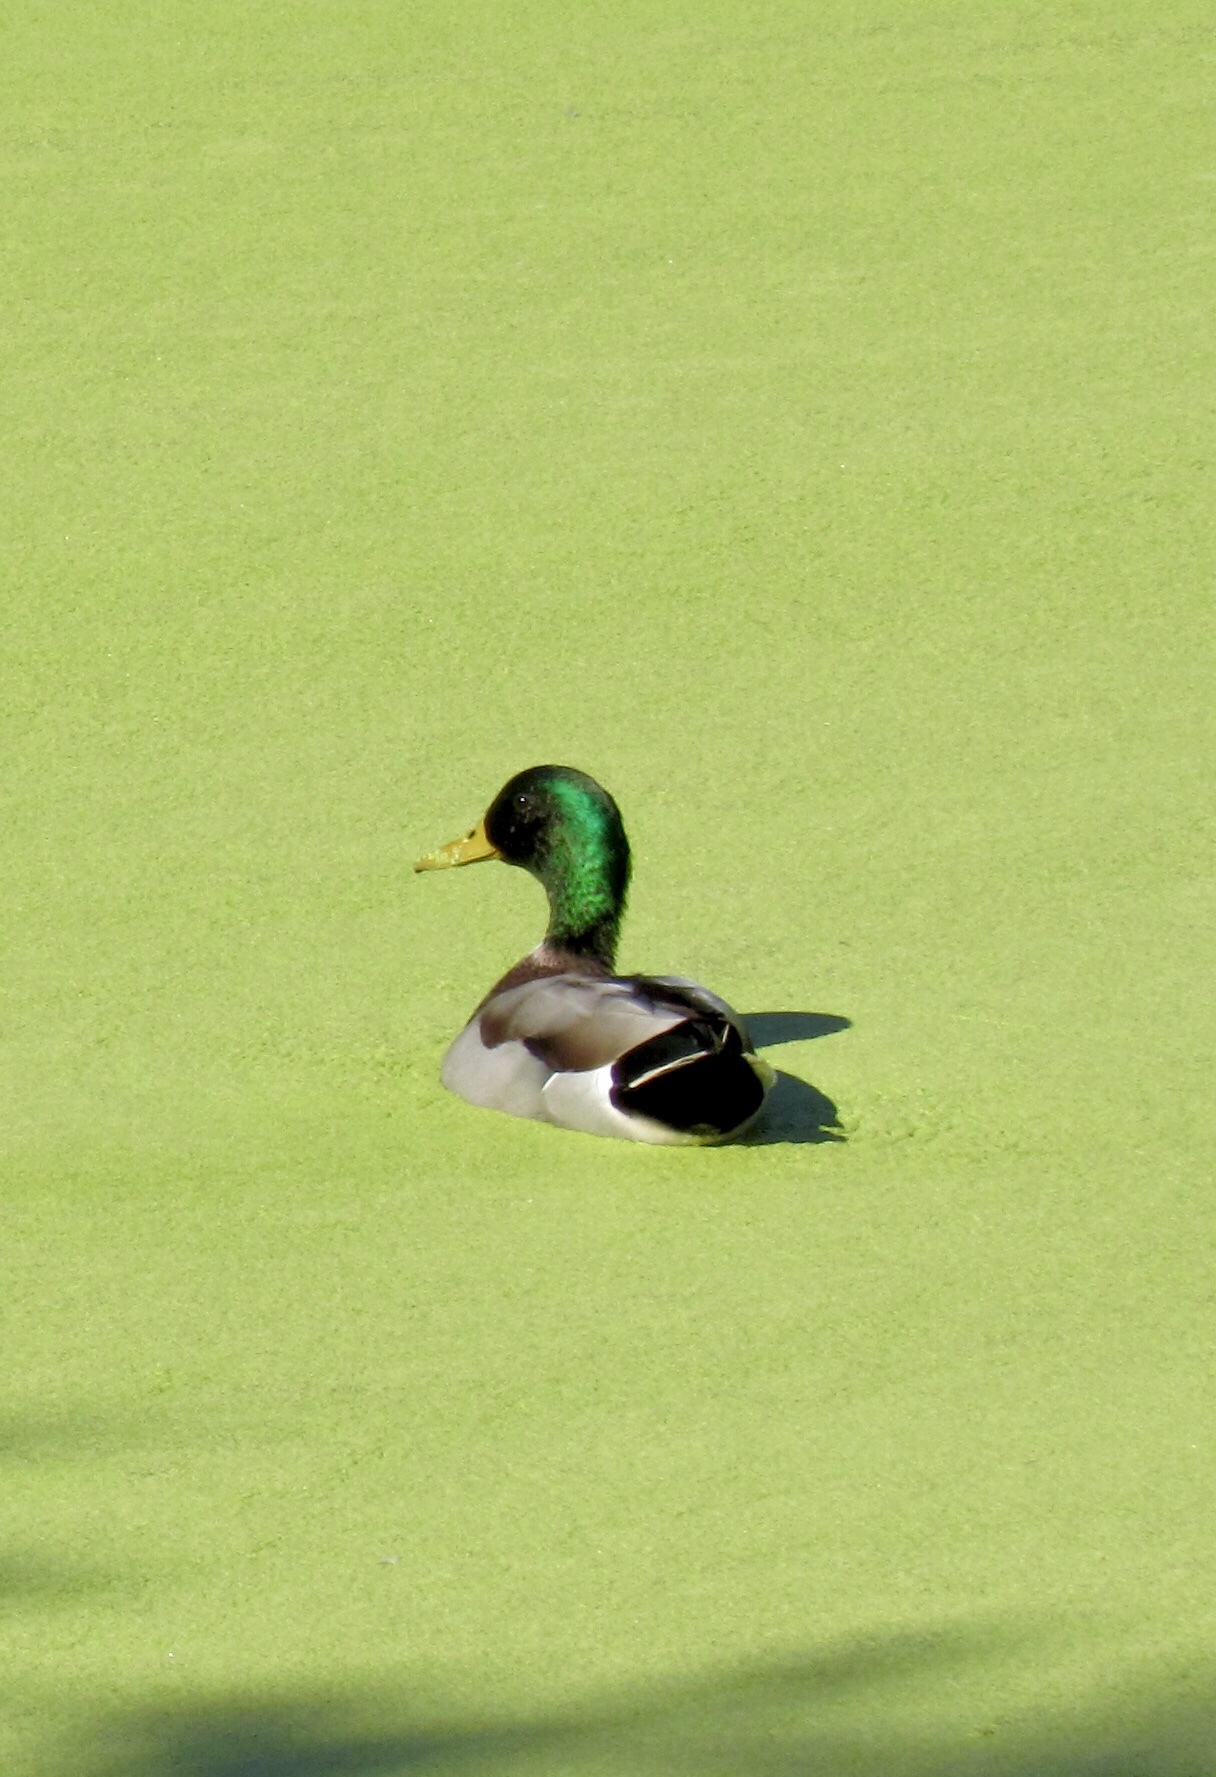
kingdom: Animalia
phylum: Chordata
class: Aves
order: Anseriformes
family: Anatidae
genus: Anas
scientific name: Anas platyrhynchos
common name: Mallard
